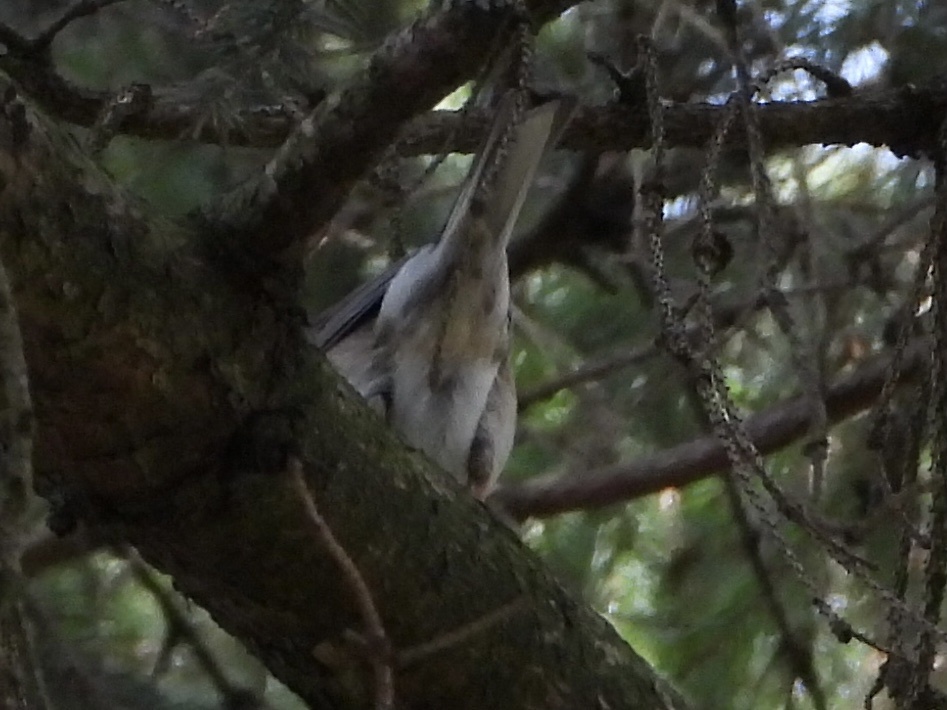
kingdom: Animalia
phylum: Chordata
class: Aves
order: Passeriformes
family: Passerellidae
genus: Junco
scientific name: Junco hyemalis
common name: Dark-eyed junco
